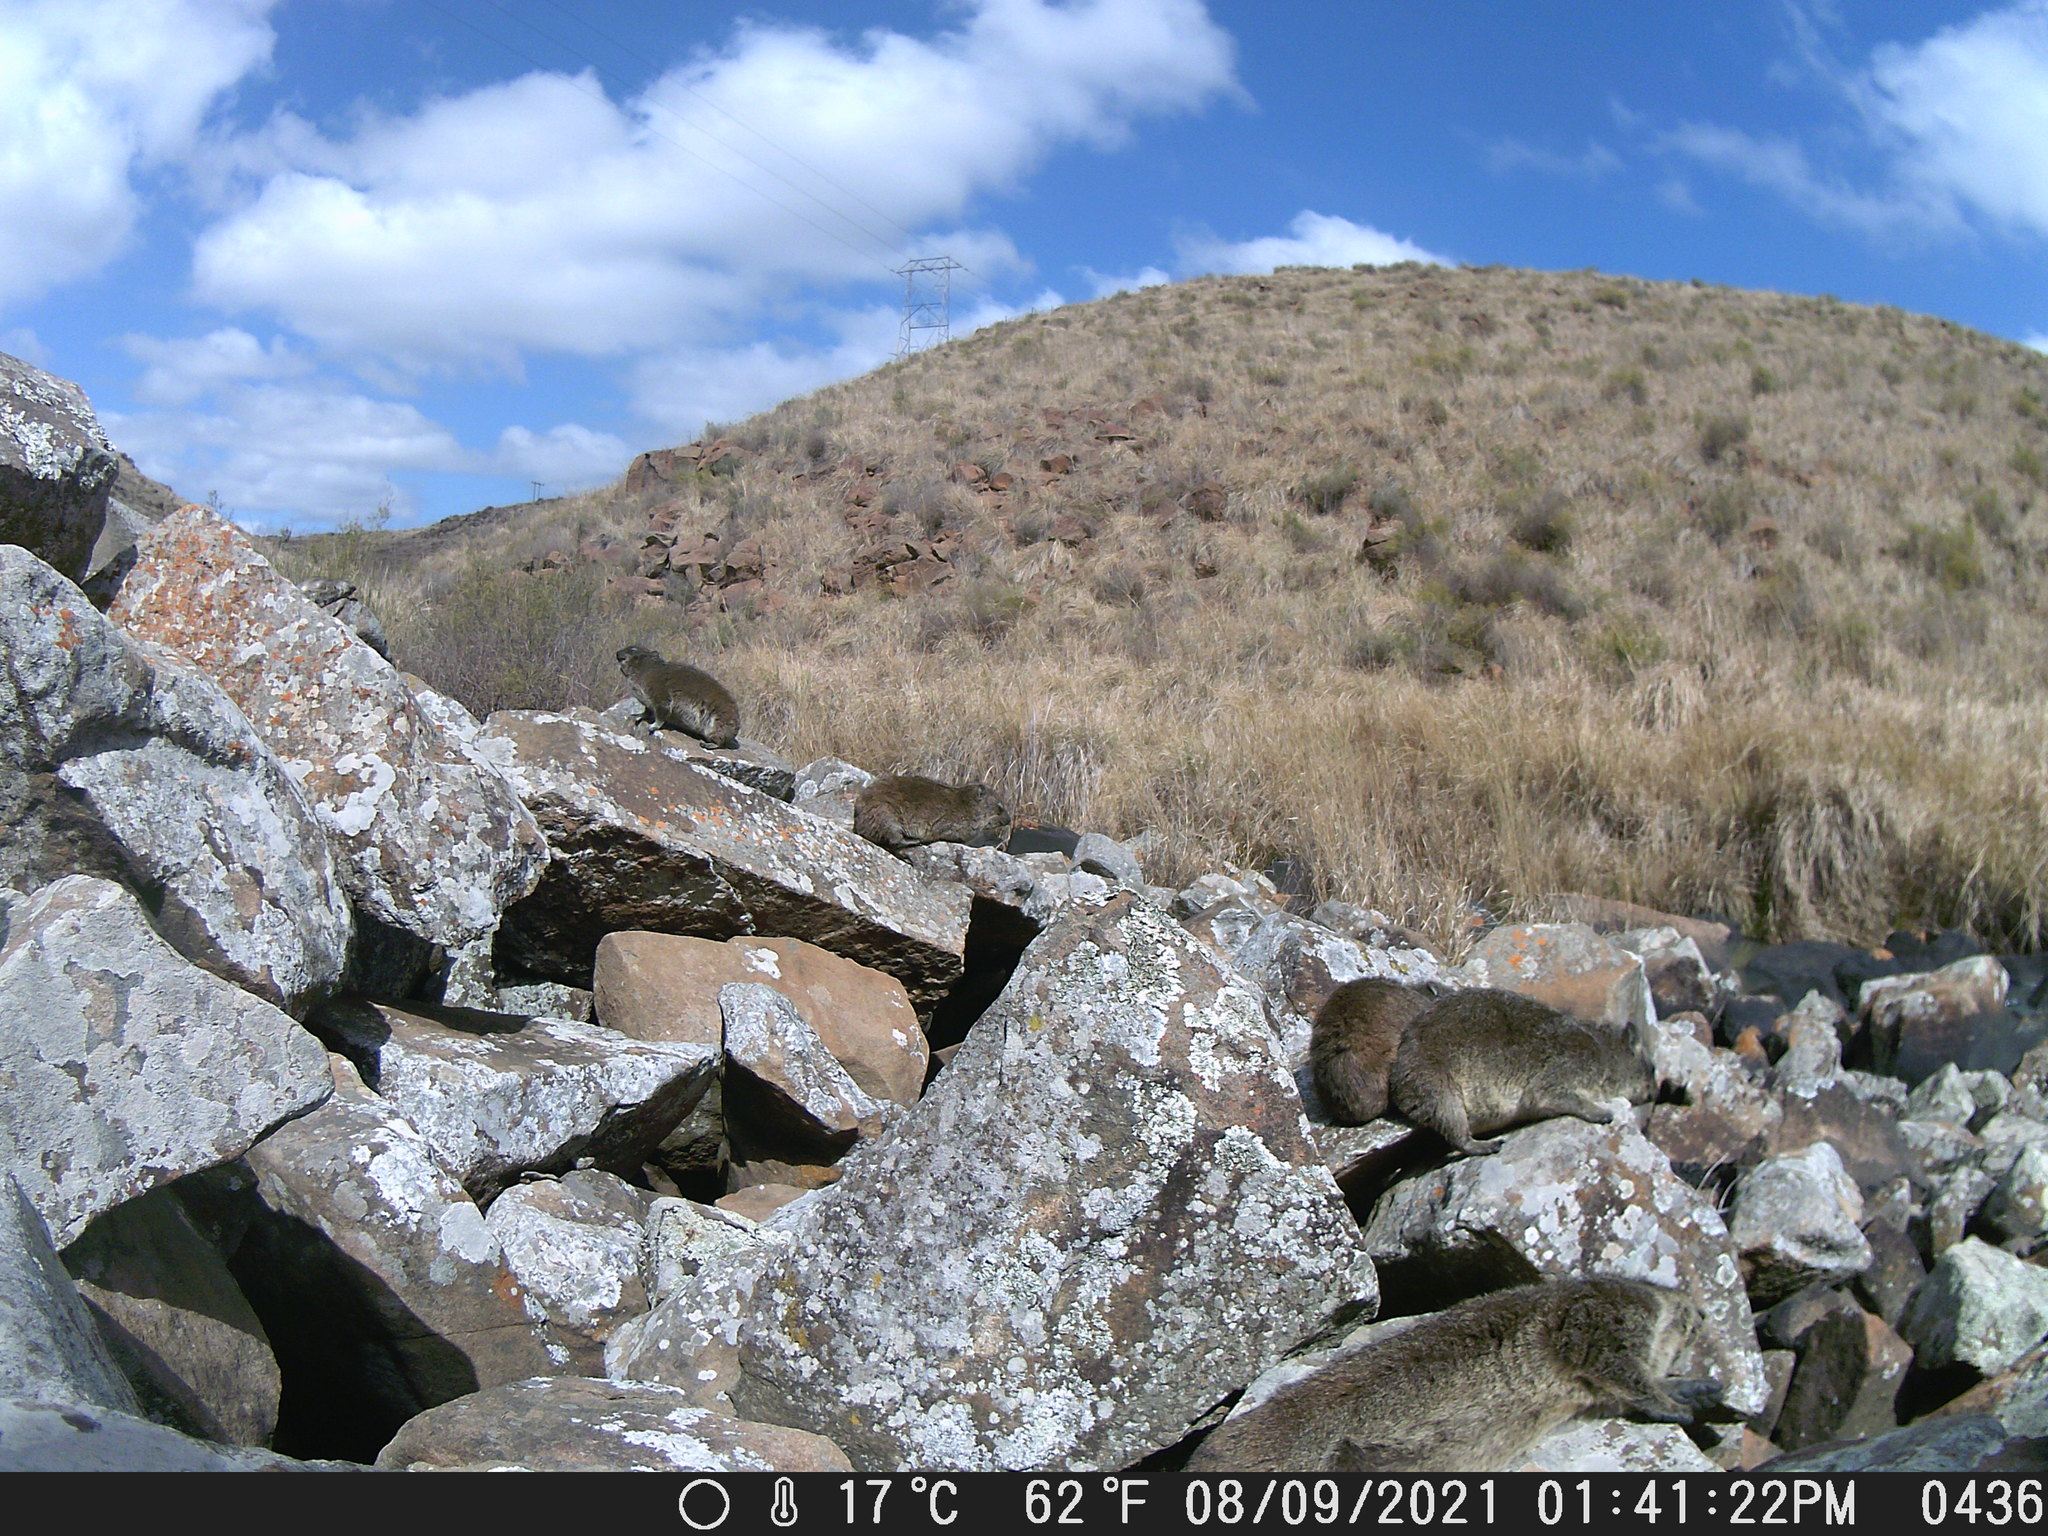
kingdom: Animalia
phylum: Chordata
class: Mammalia
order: Hyracoidea
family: Procaviidae
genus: Procavia
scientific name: Procavia capensis
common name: Rock hyrax
